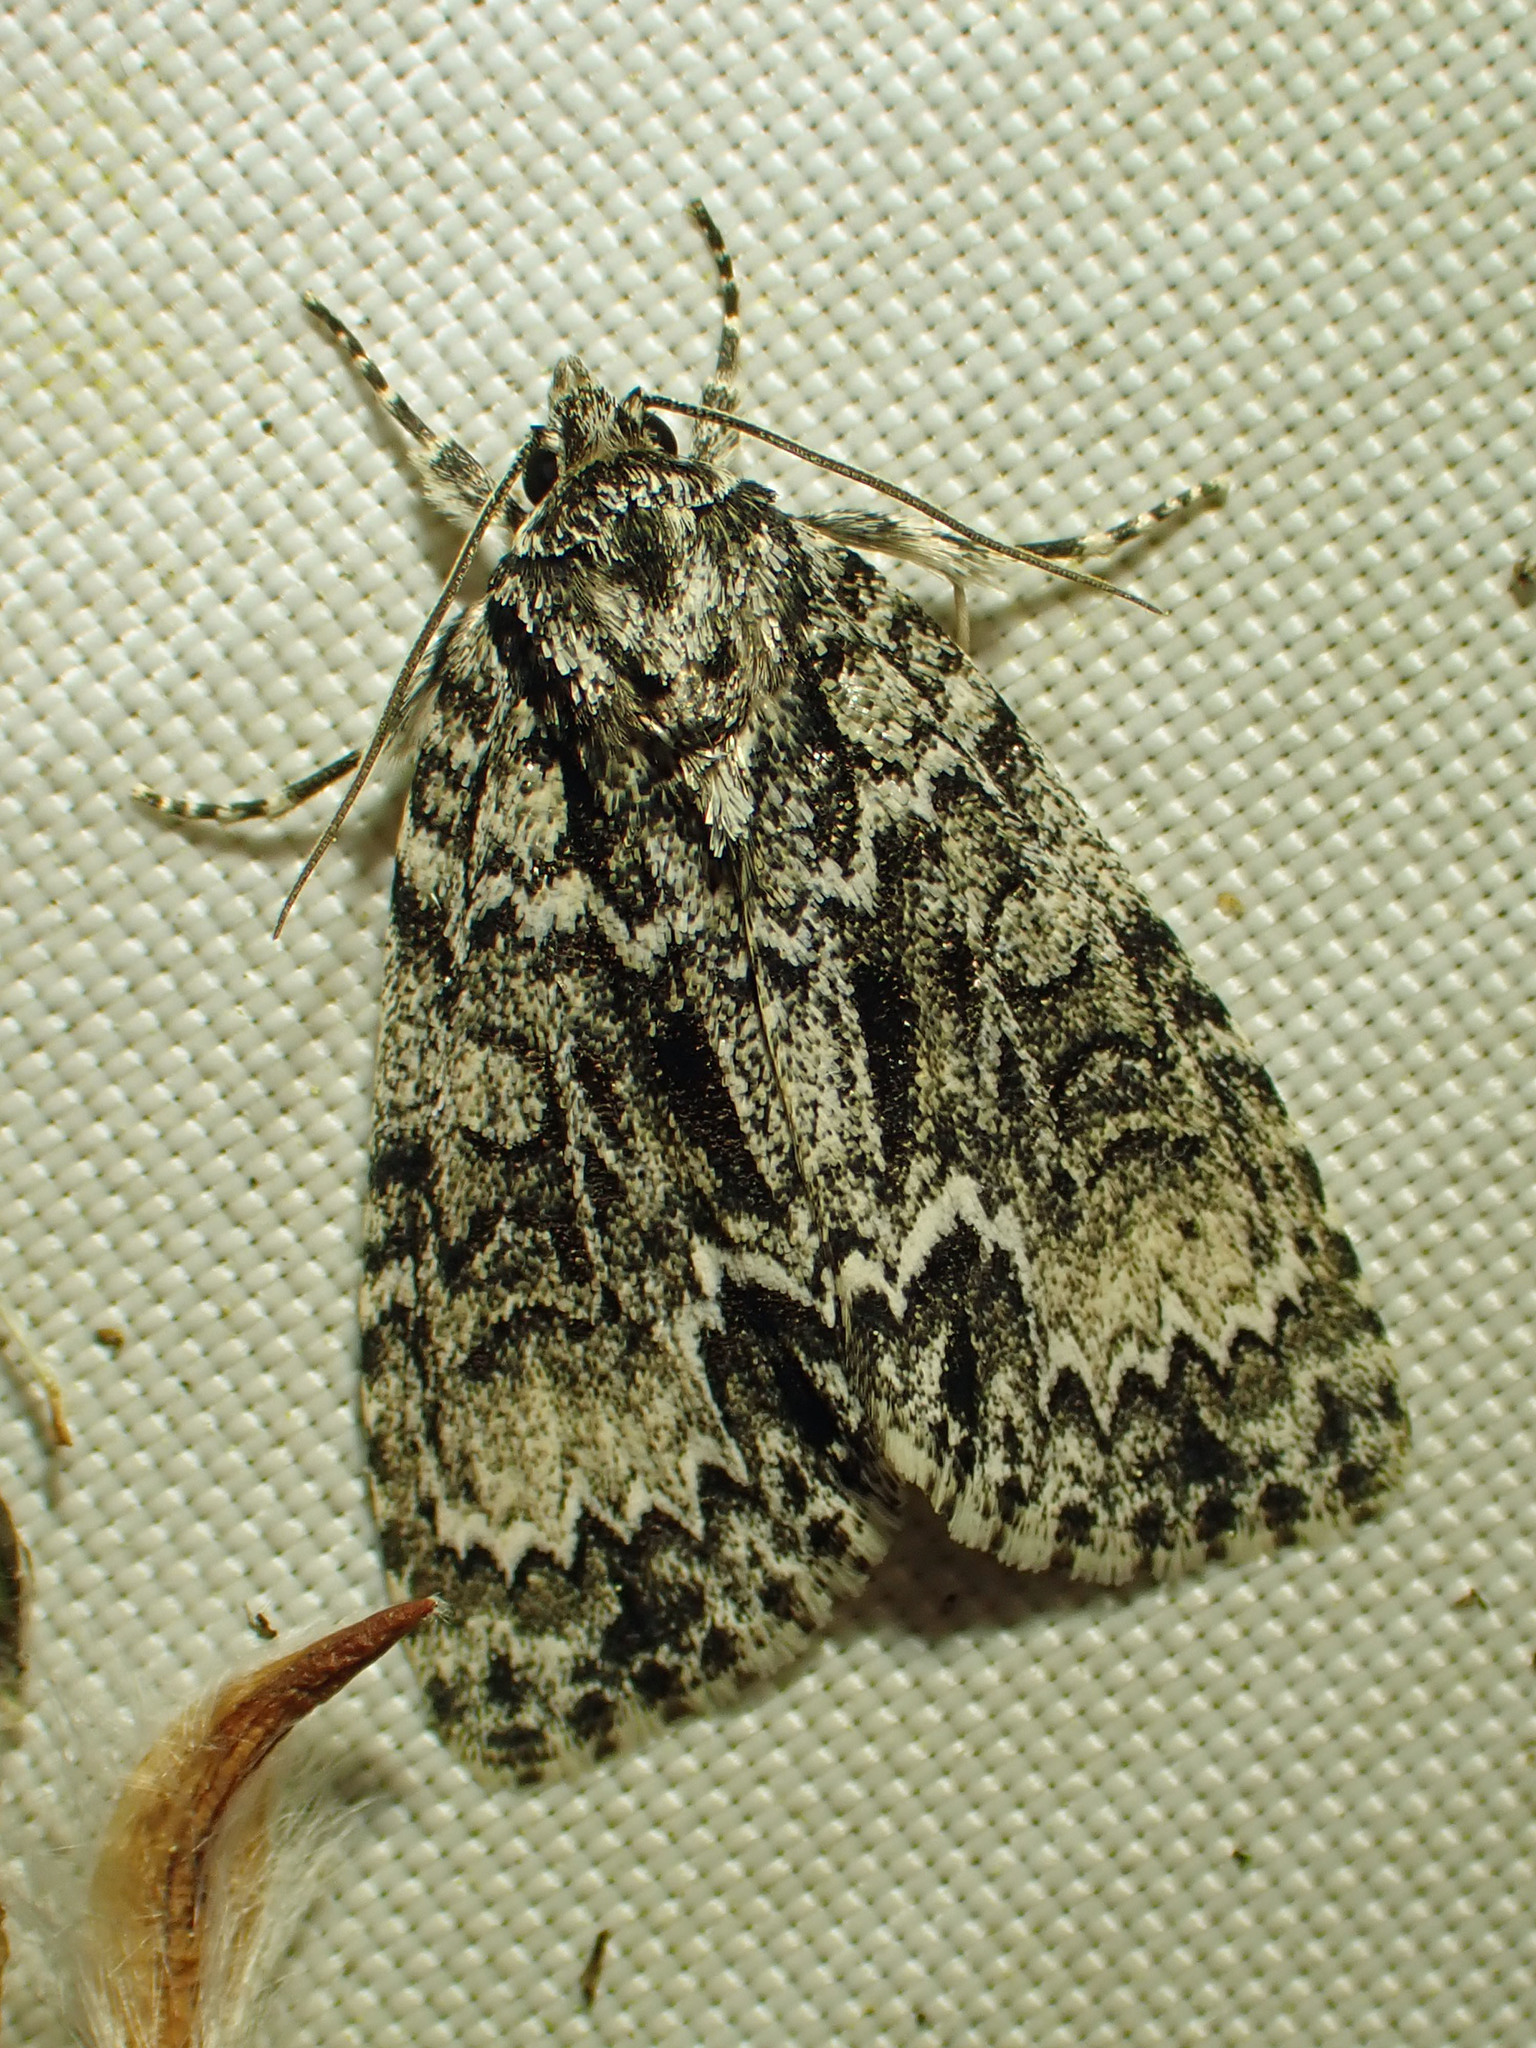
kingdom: Animalia
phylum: Arthropoda
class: Insecta
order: Lepidoptera
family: Noctuidae
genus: Acronicta
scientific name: Acronicta fragilis
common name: Fragile dagger
